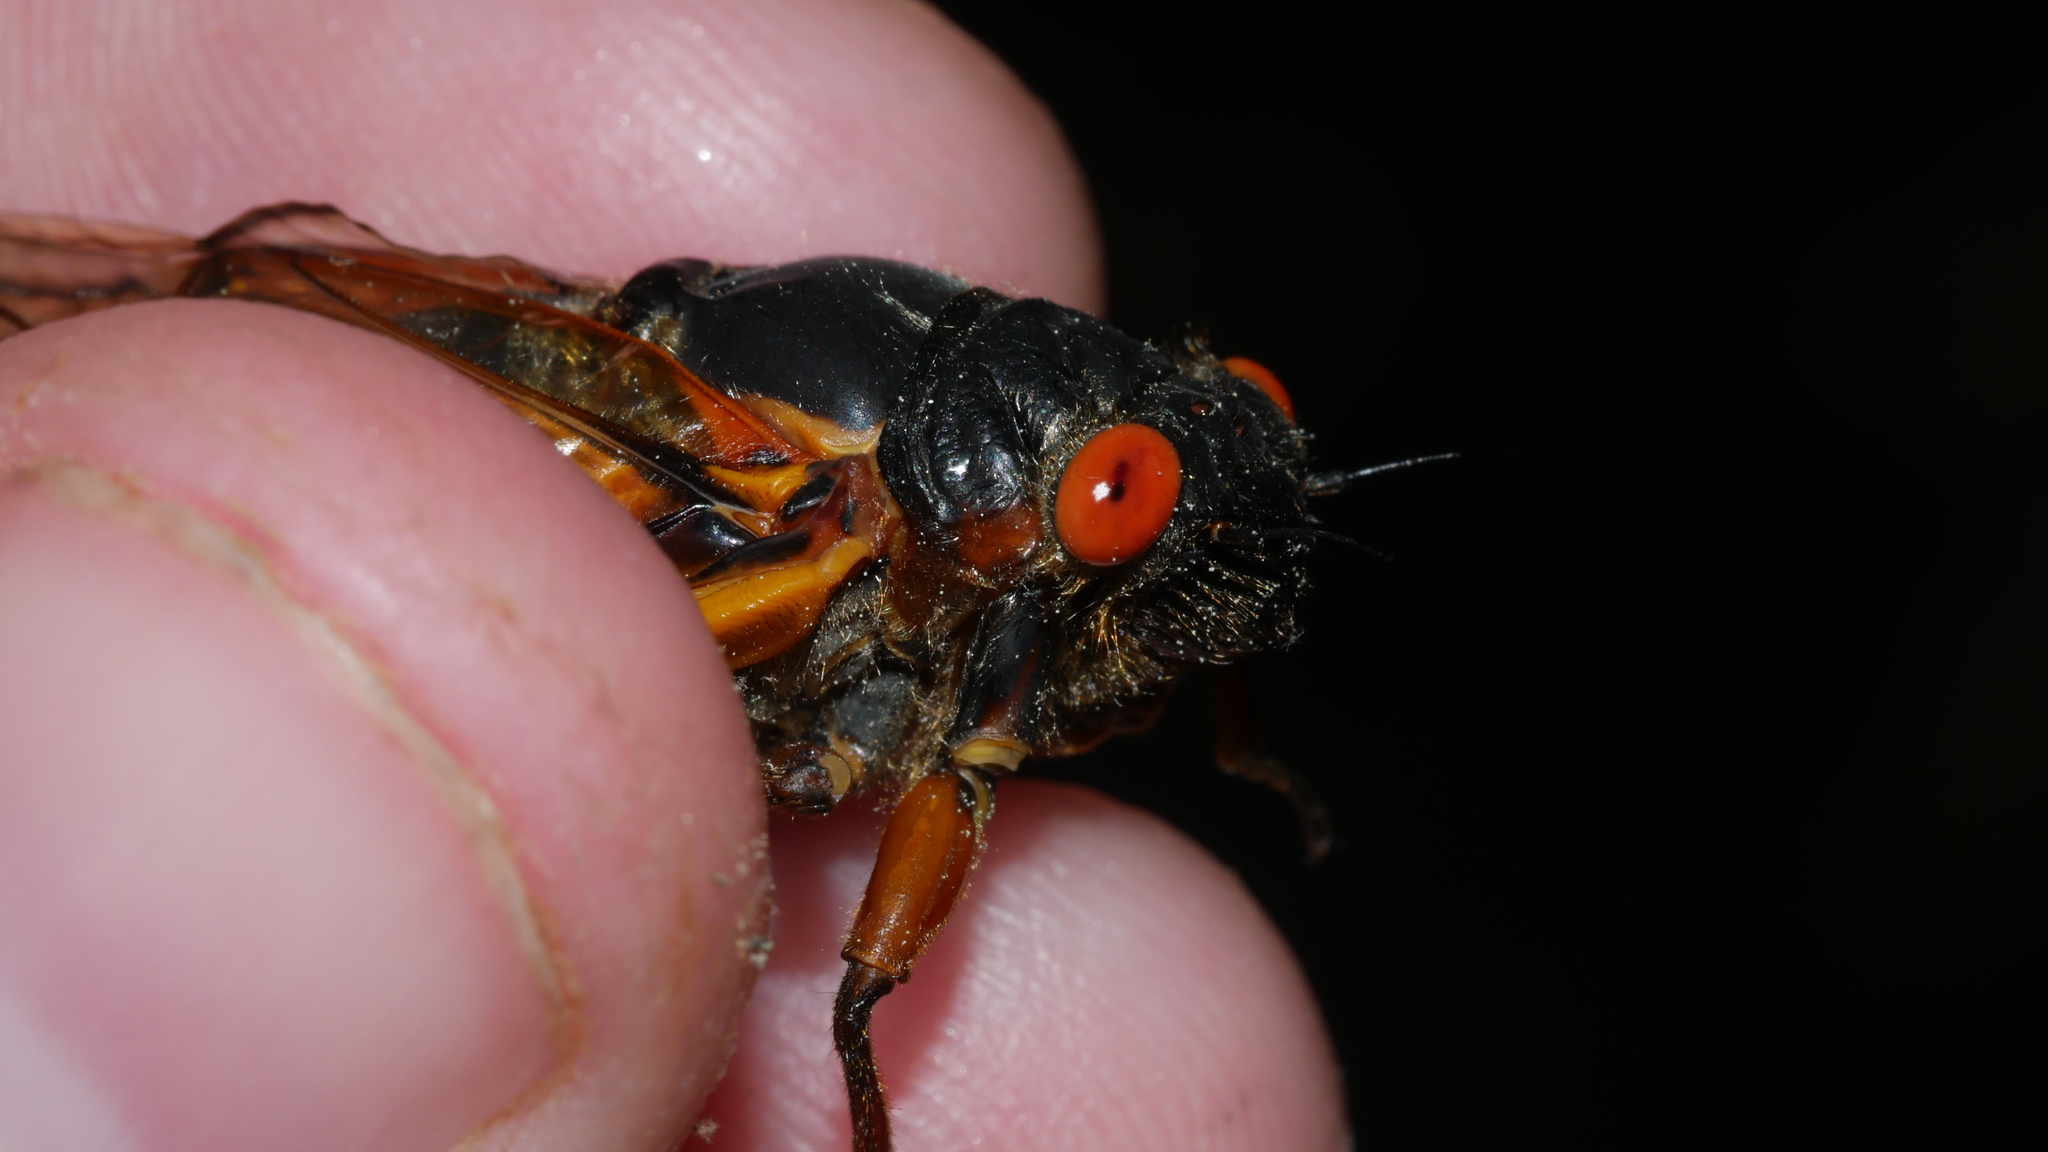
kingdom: Animalia
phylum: Arthropoda
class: Insecta
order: Hemiptera
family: Cicadidae
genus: Magicicada
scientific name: Magicicada septendecim
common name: Periodical cicada
